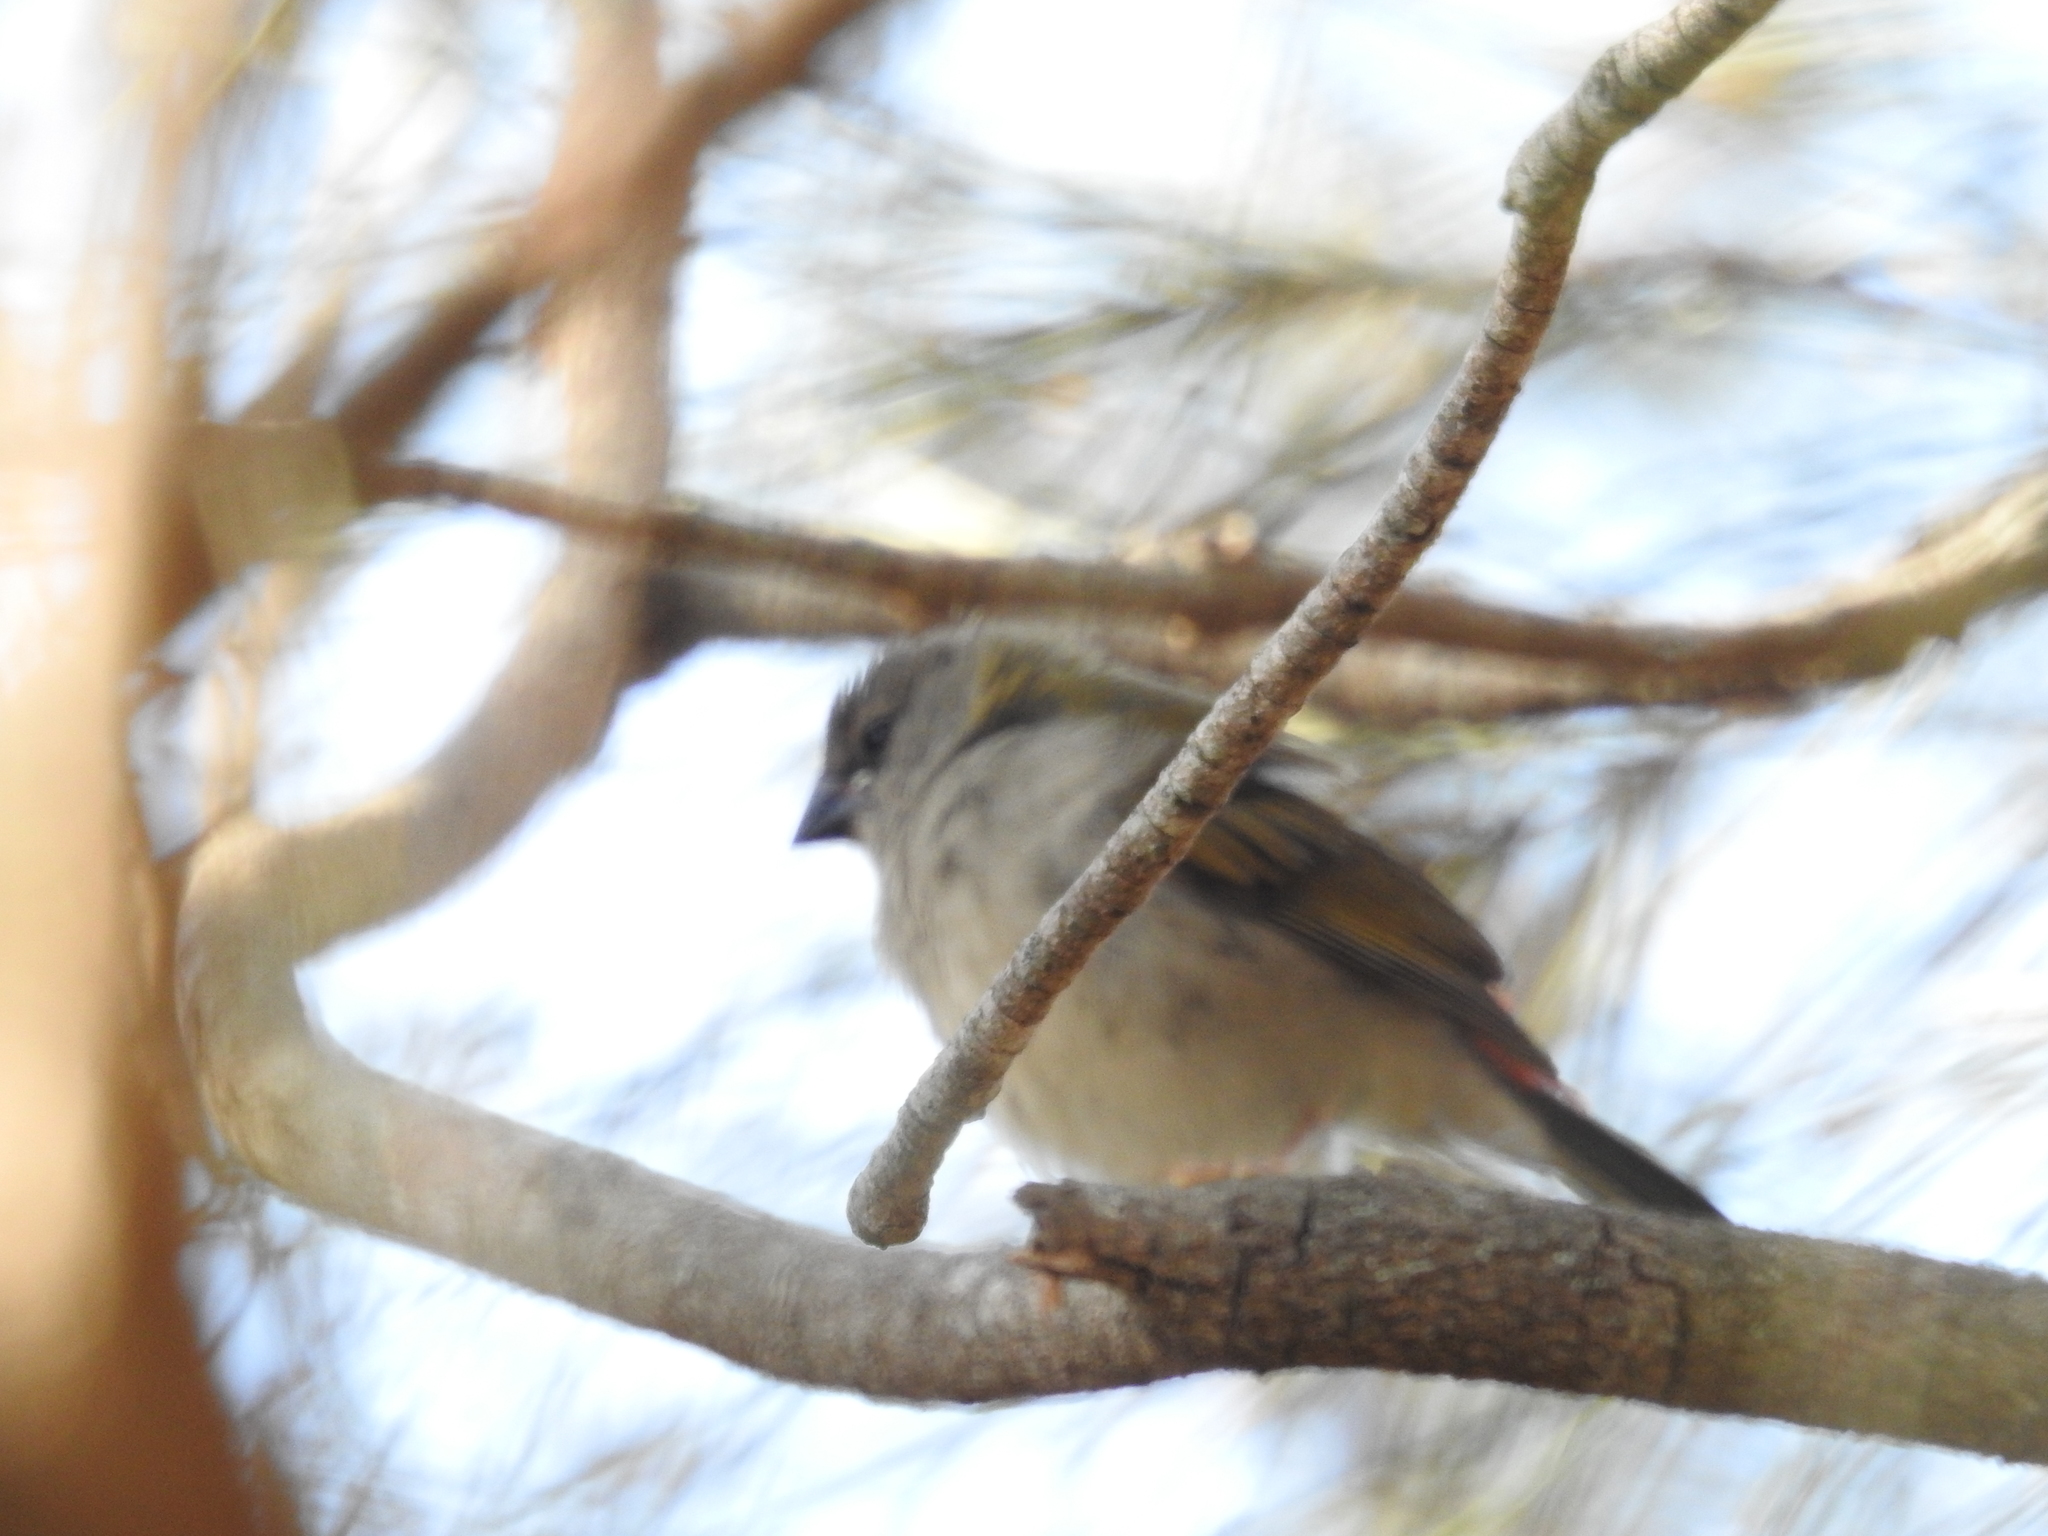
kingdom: Animalia
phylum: Chordata
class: Aves
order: Passeriformes
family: Estrildidae
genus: Neochmia
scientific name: Neochmia temporalis
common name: Red-browed finch
